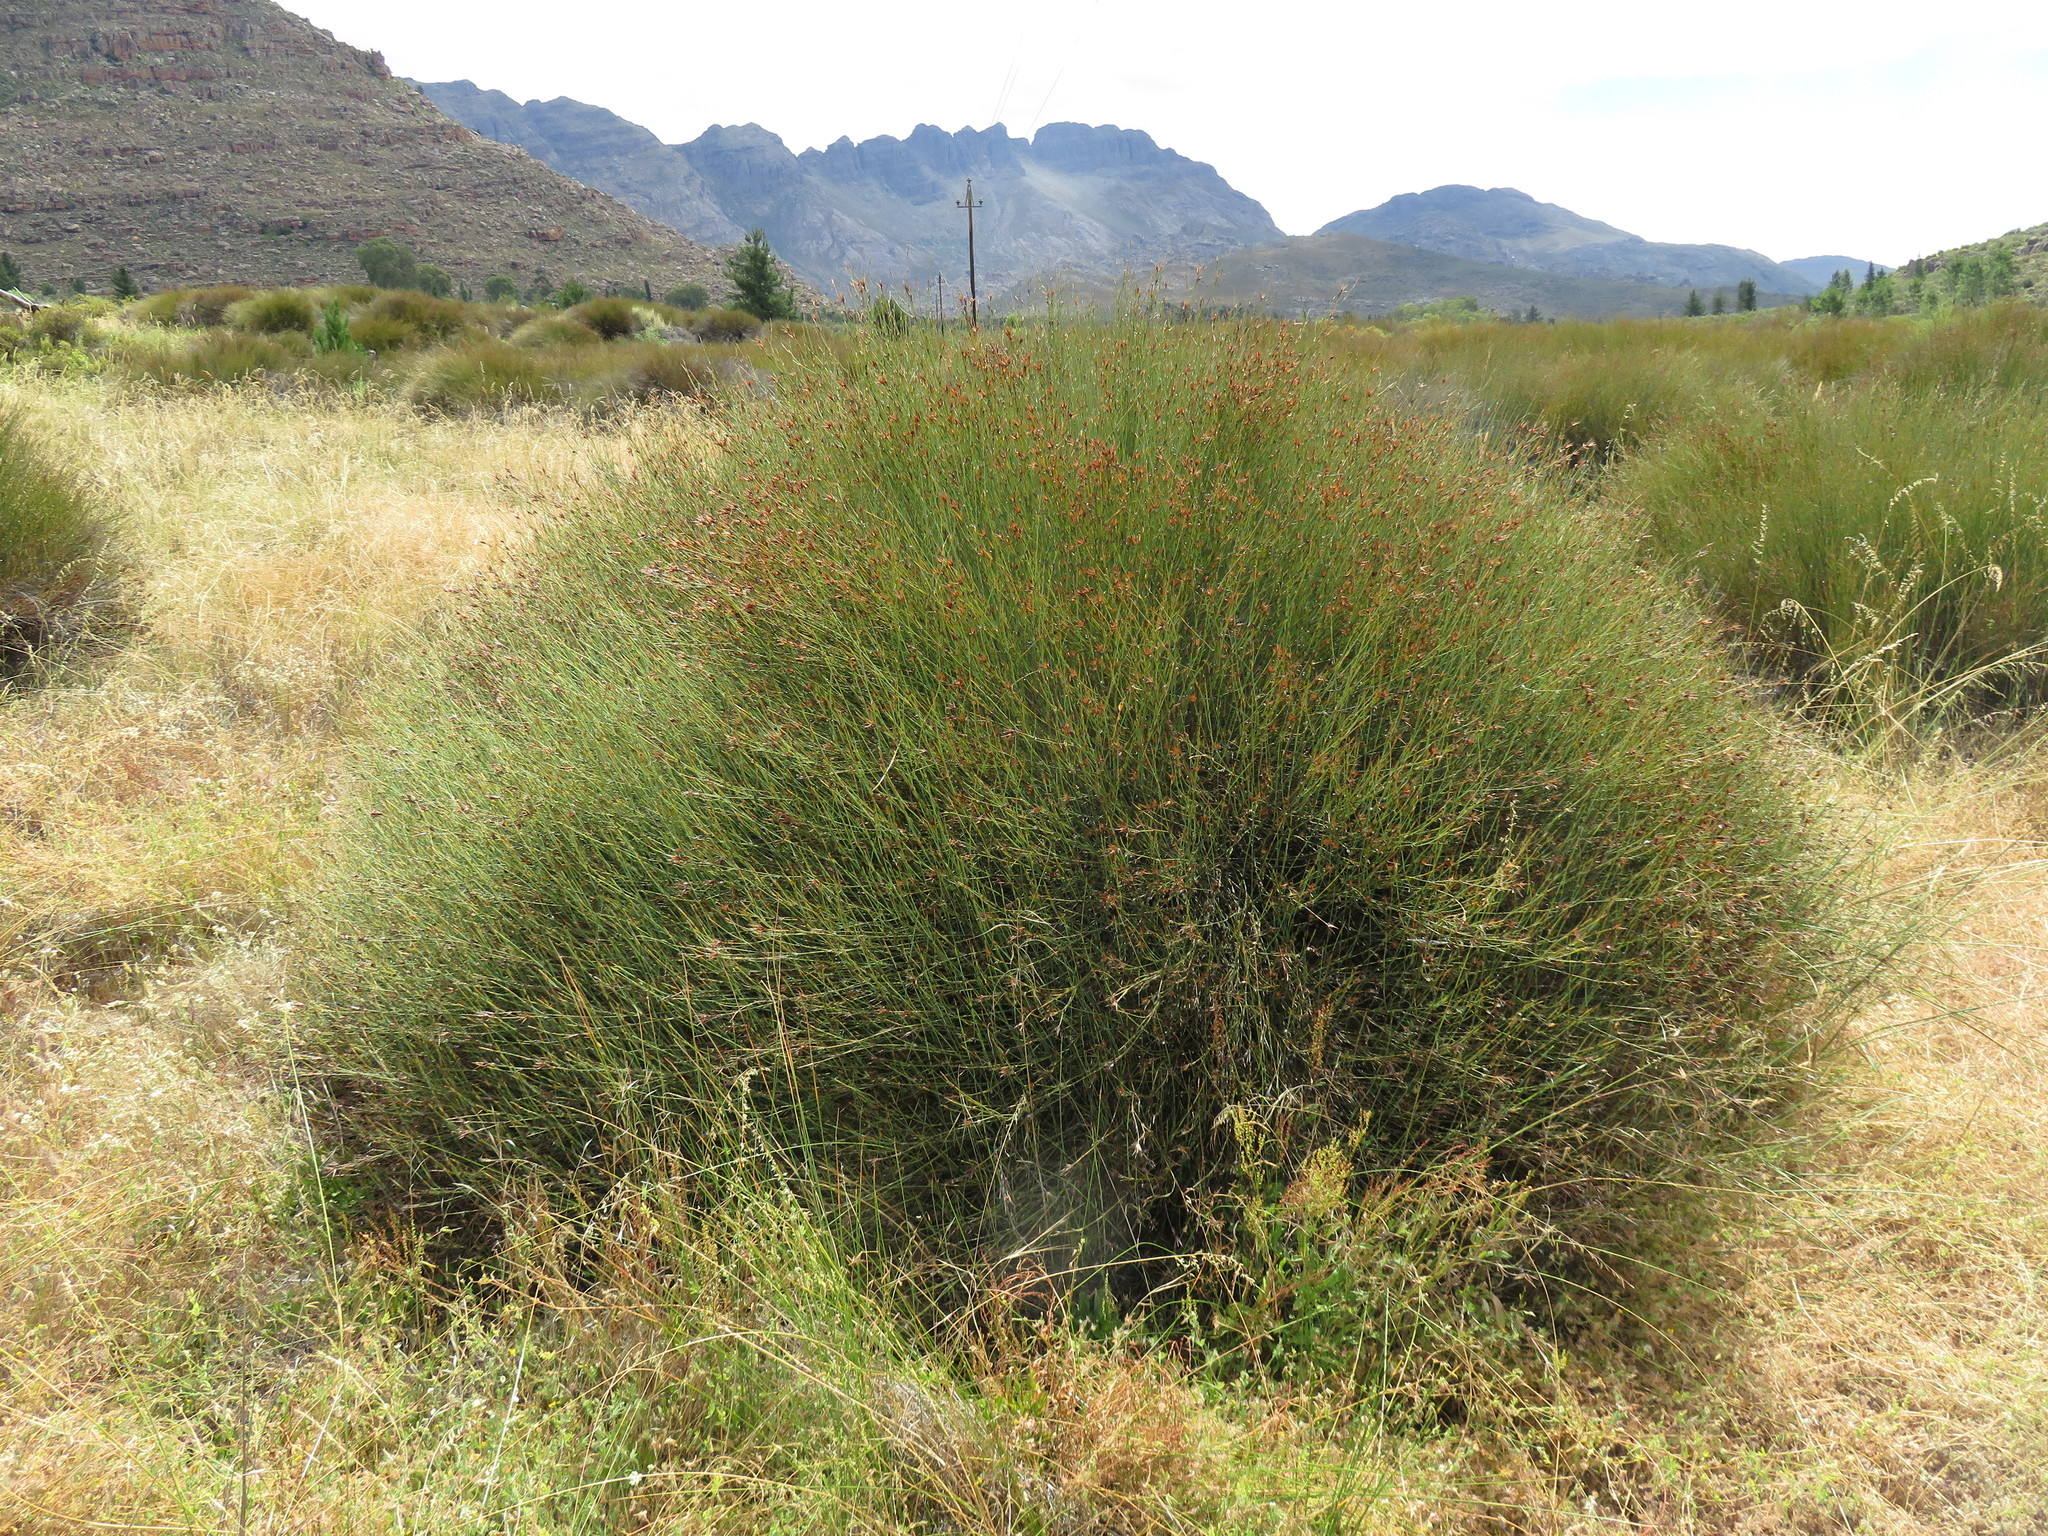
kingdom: Plantae
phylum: Tracheophyta
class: Liliopsida
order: Poales
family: Restionaceae
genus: Willdenowia
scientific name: Willdenowia incurvata
